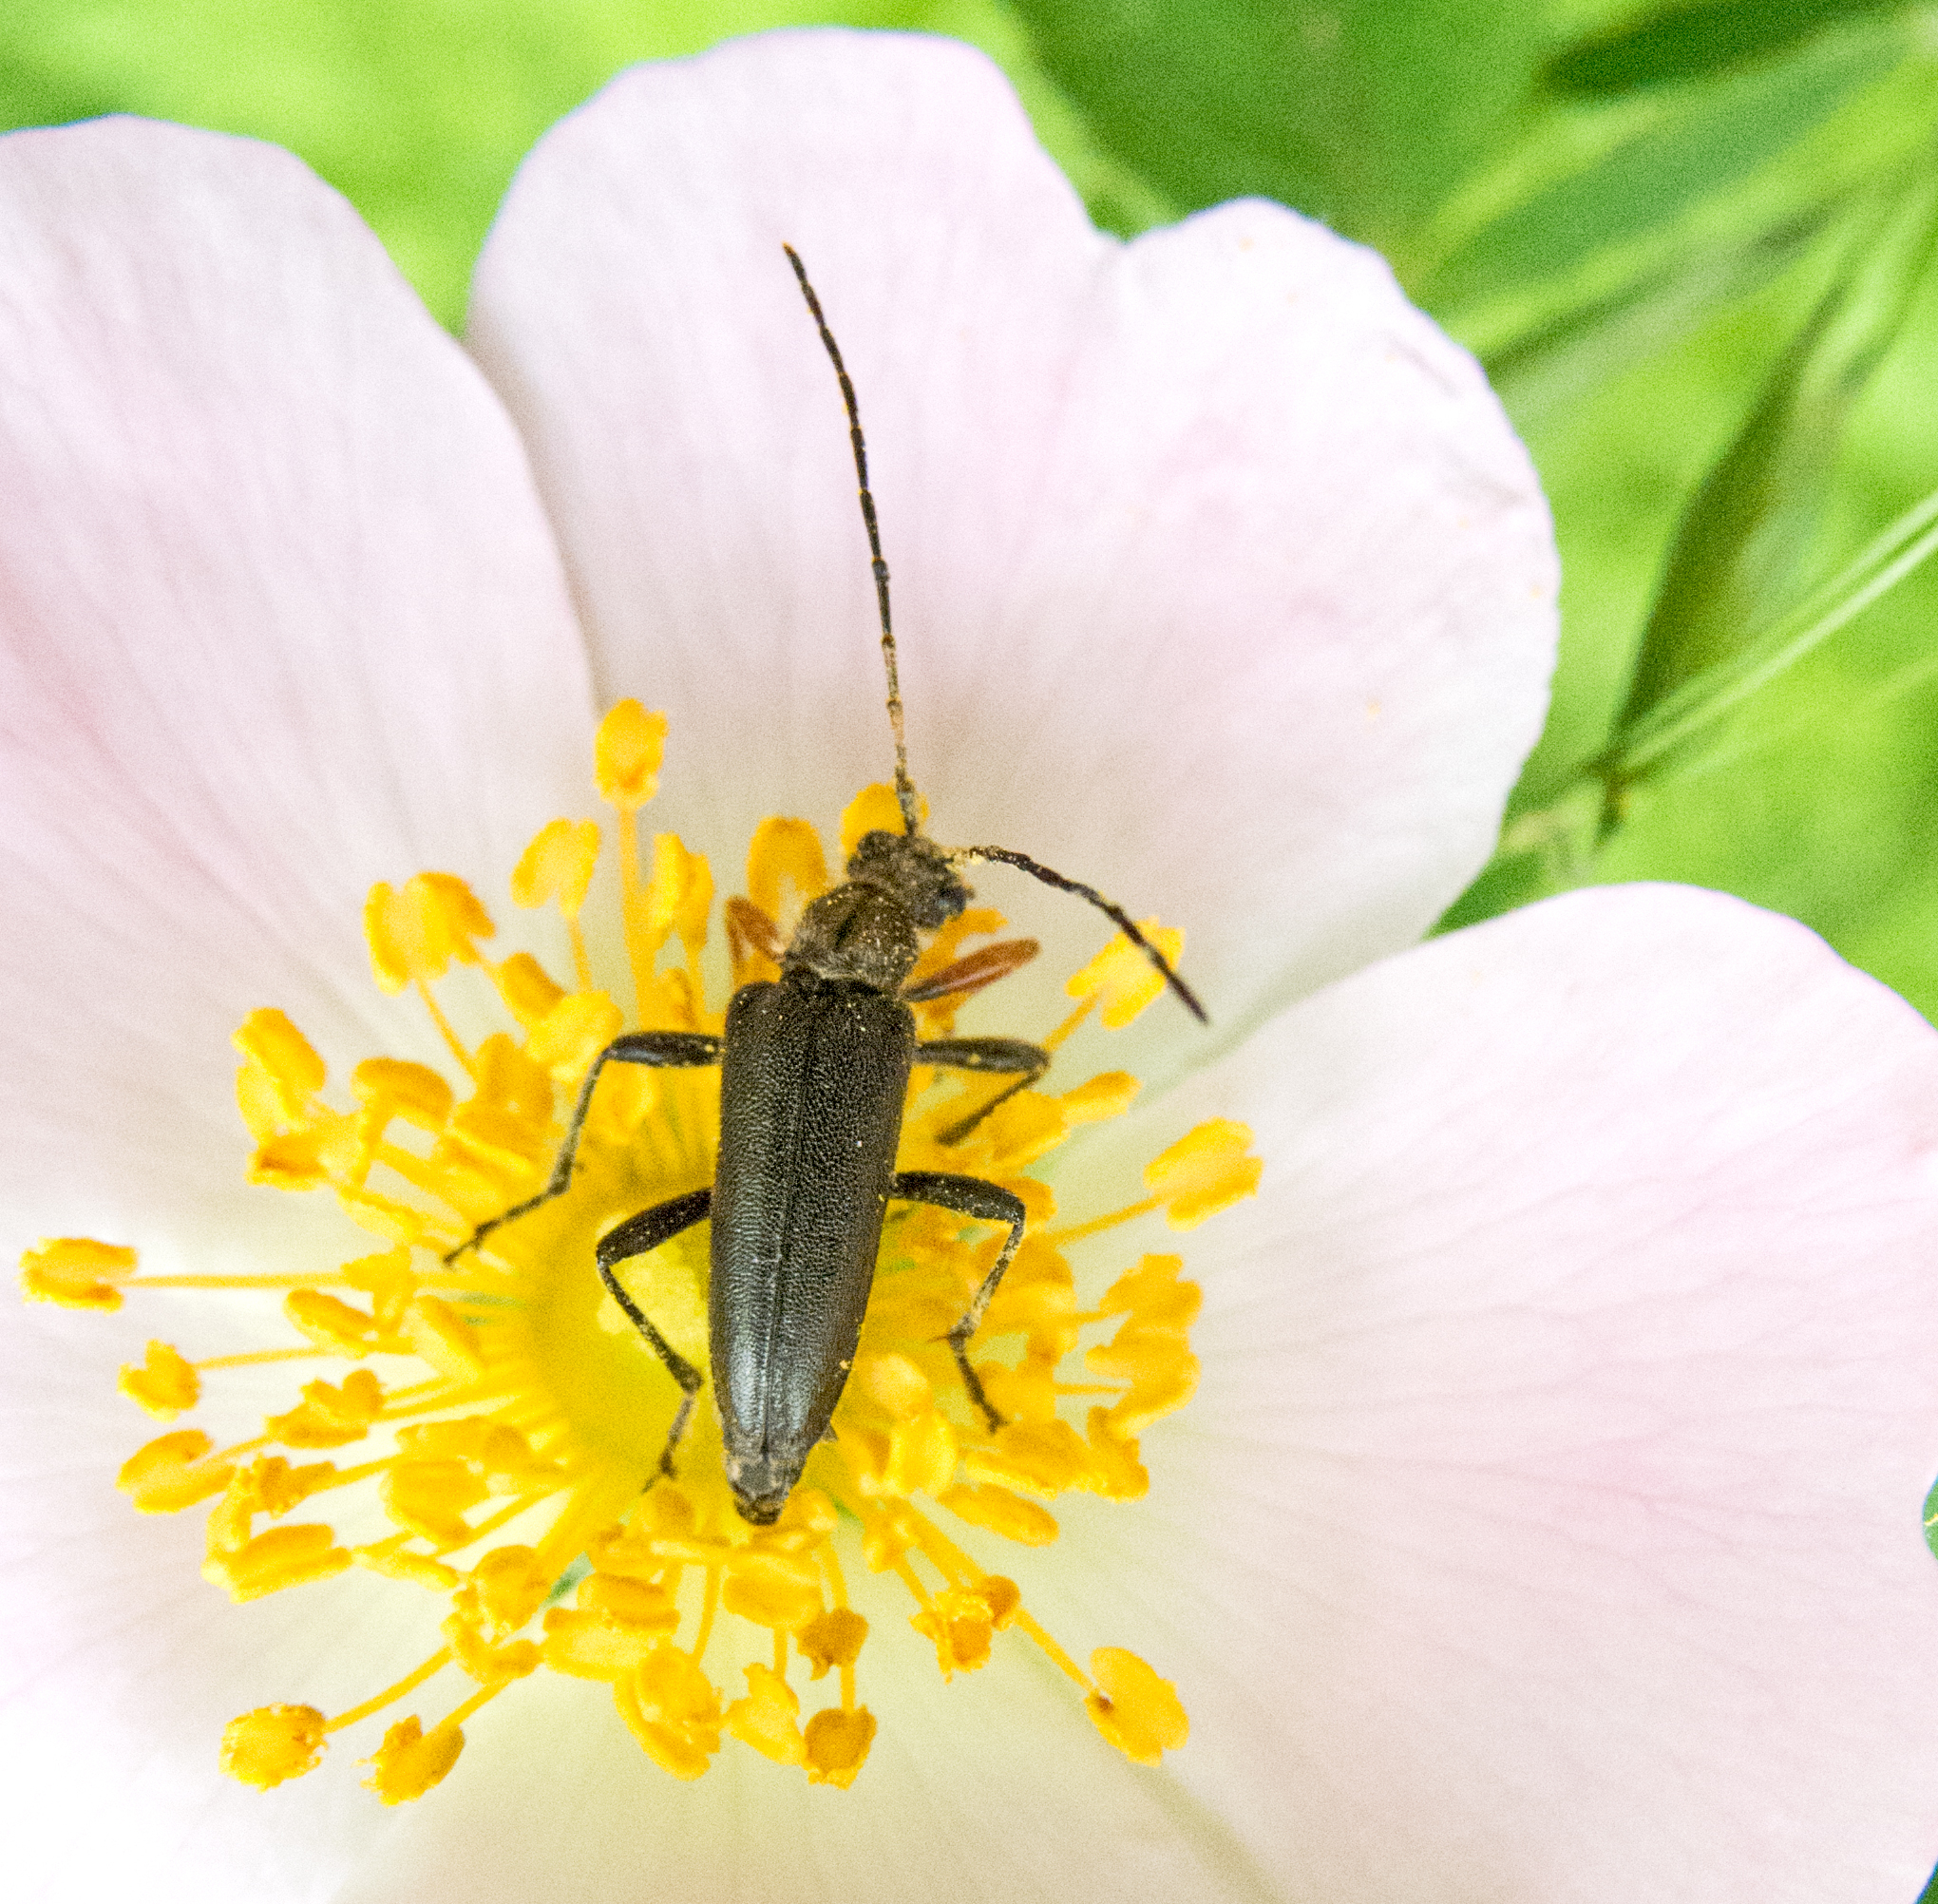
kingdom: Animalia
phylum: Arthropoda
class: Insecta
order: Coleoptera
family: Cerambycidae
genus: Cortodera
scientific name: Cortodera flavimana
